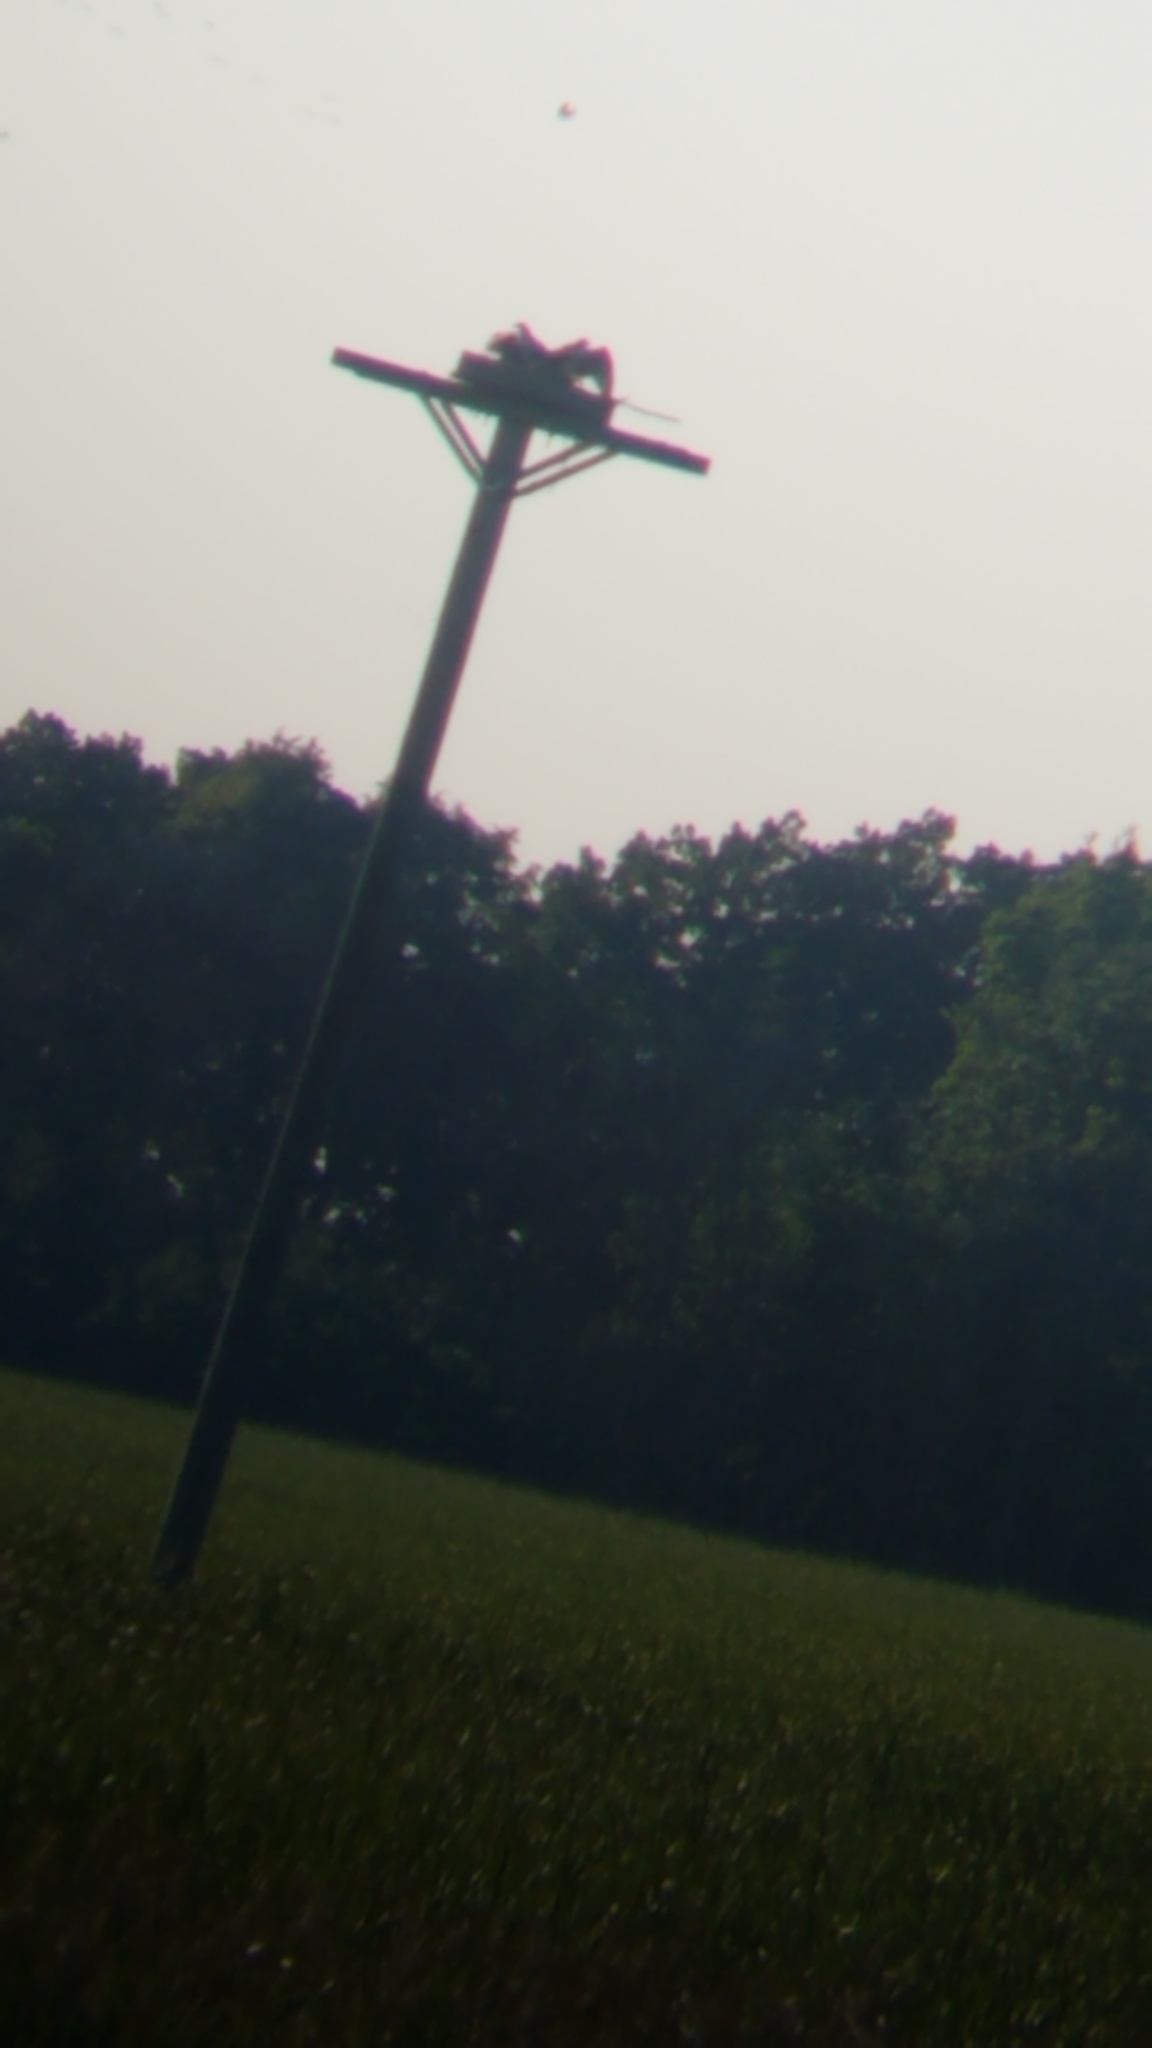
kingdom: Animalia
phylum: Chordata
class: Aves
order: Accipitriformes
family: Pandionidae
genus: Pandion
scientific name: Pandion haliaetus
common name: Osprey
